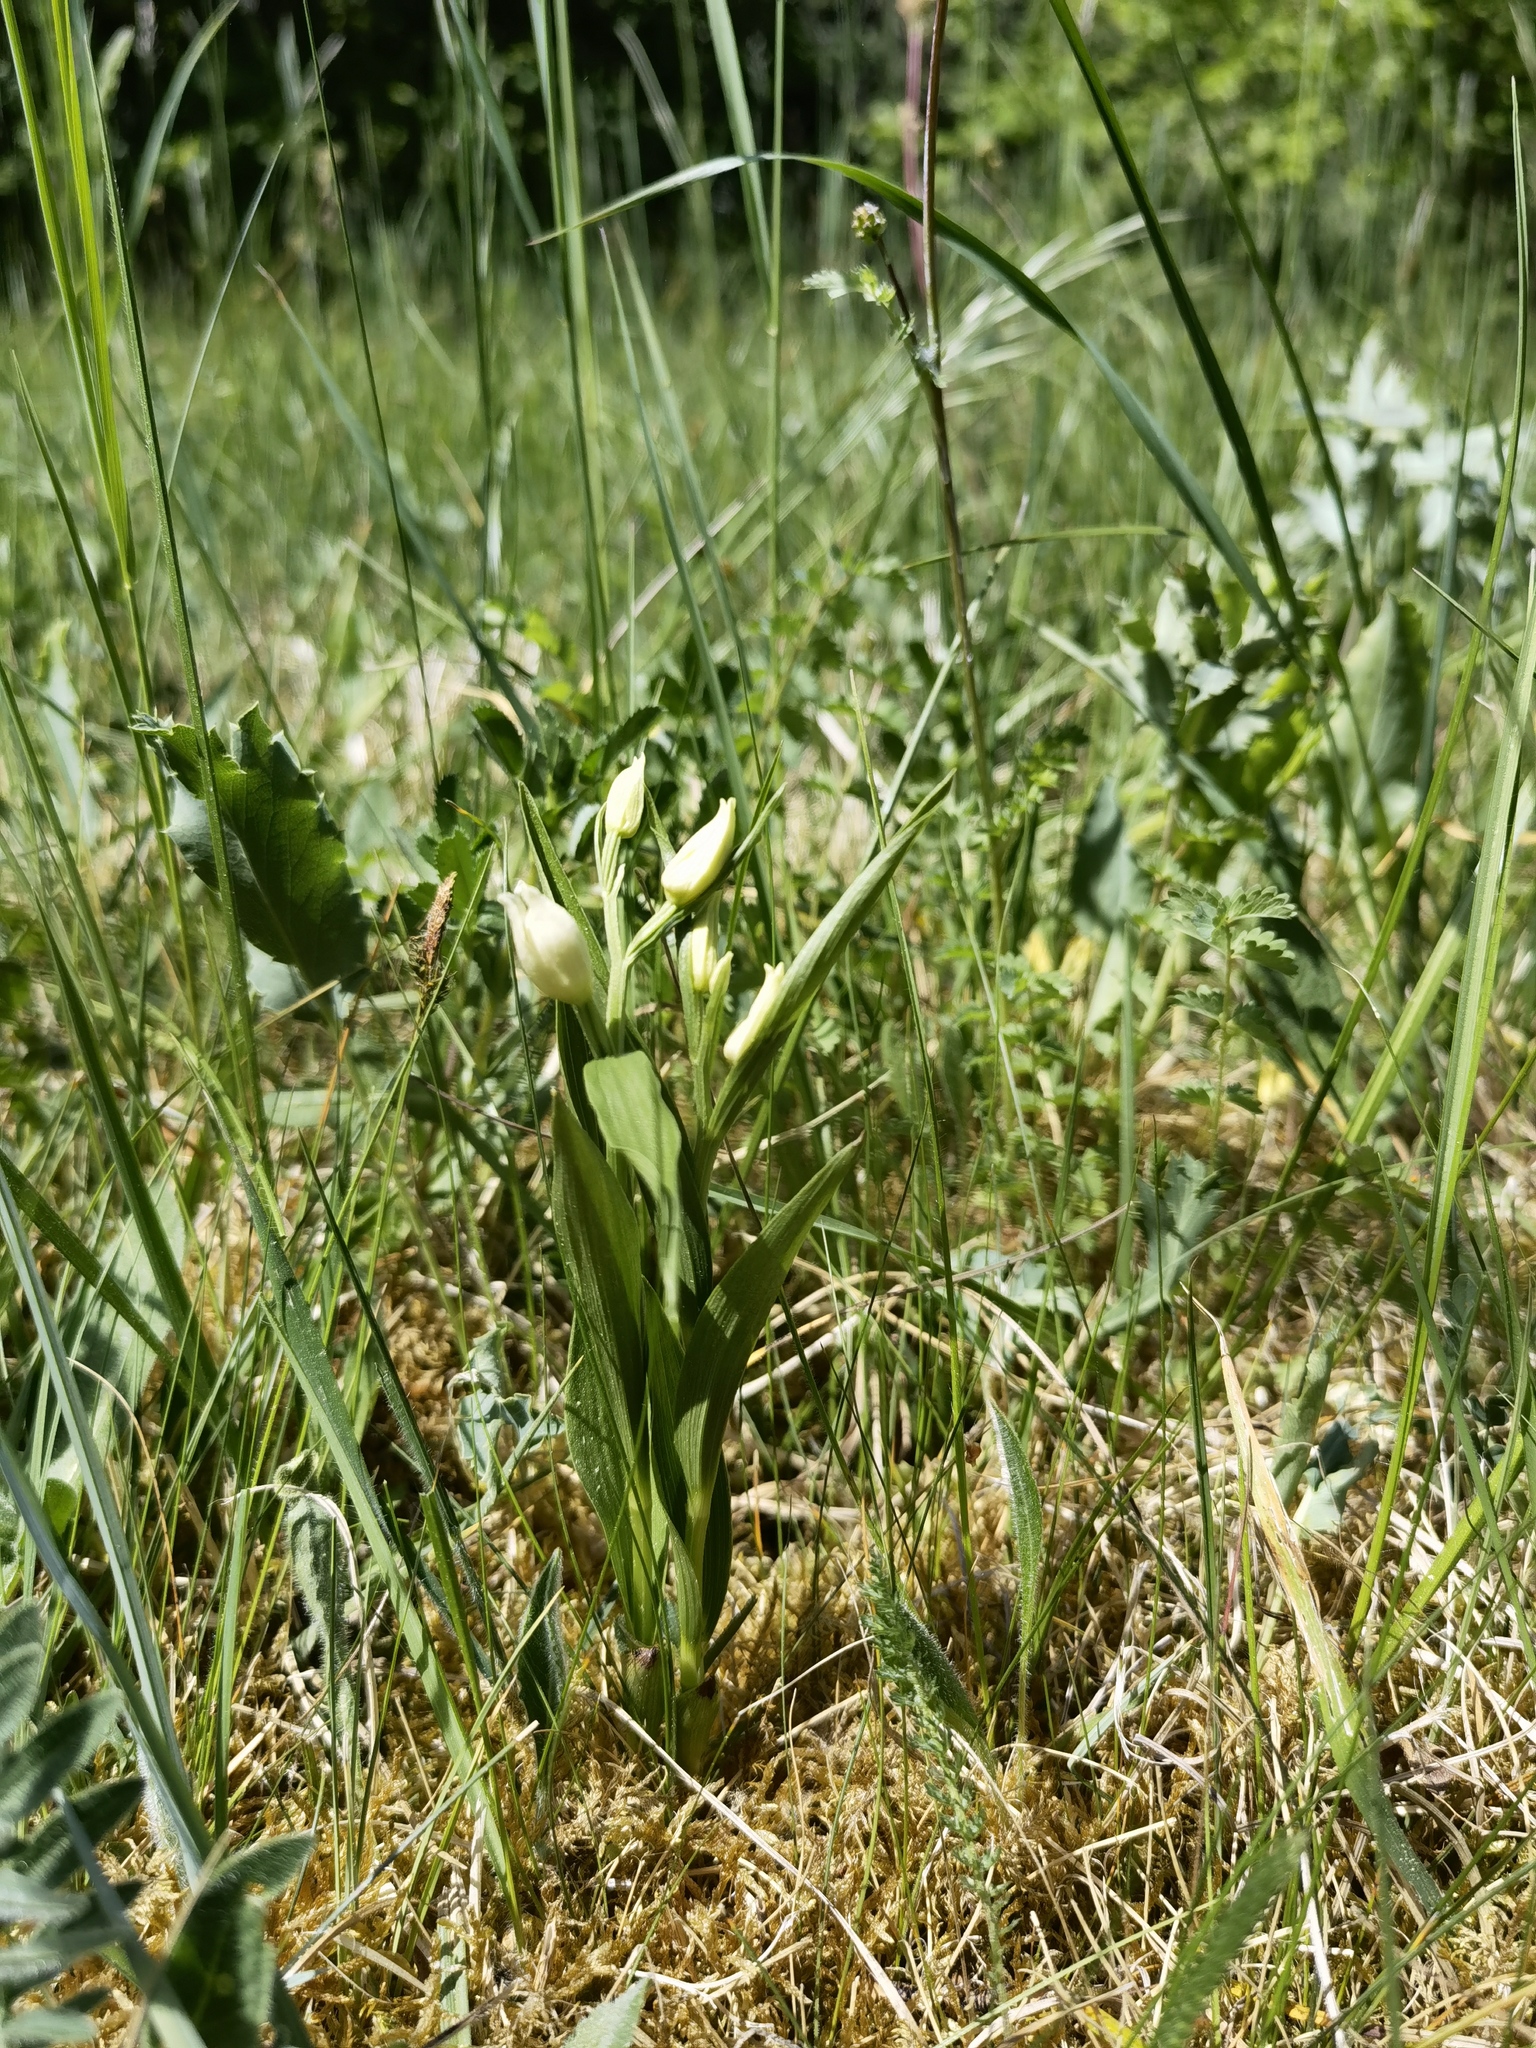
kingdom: Plantae
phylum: Tracheophyta
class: Liliopsida
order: Asparagales
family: Orchidaceae
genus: Cephalanthera
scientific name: Cephalanthera damasonium
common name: White helleborine
